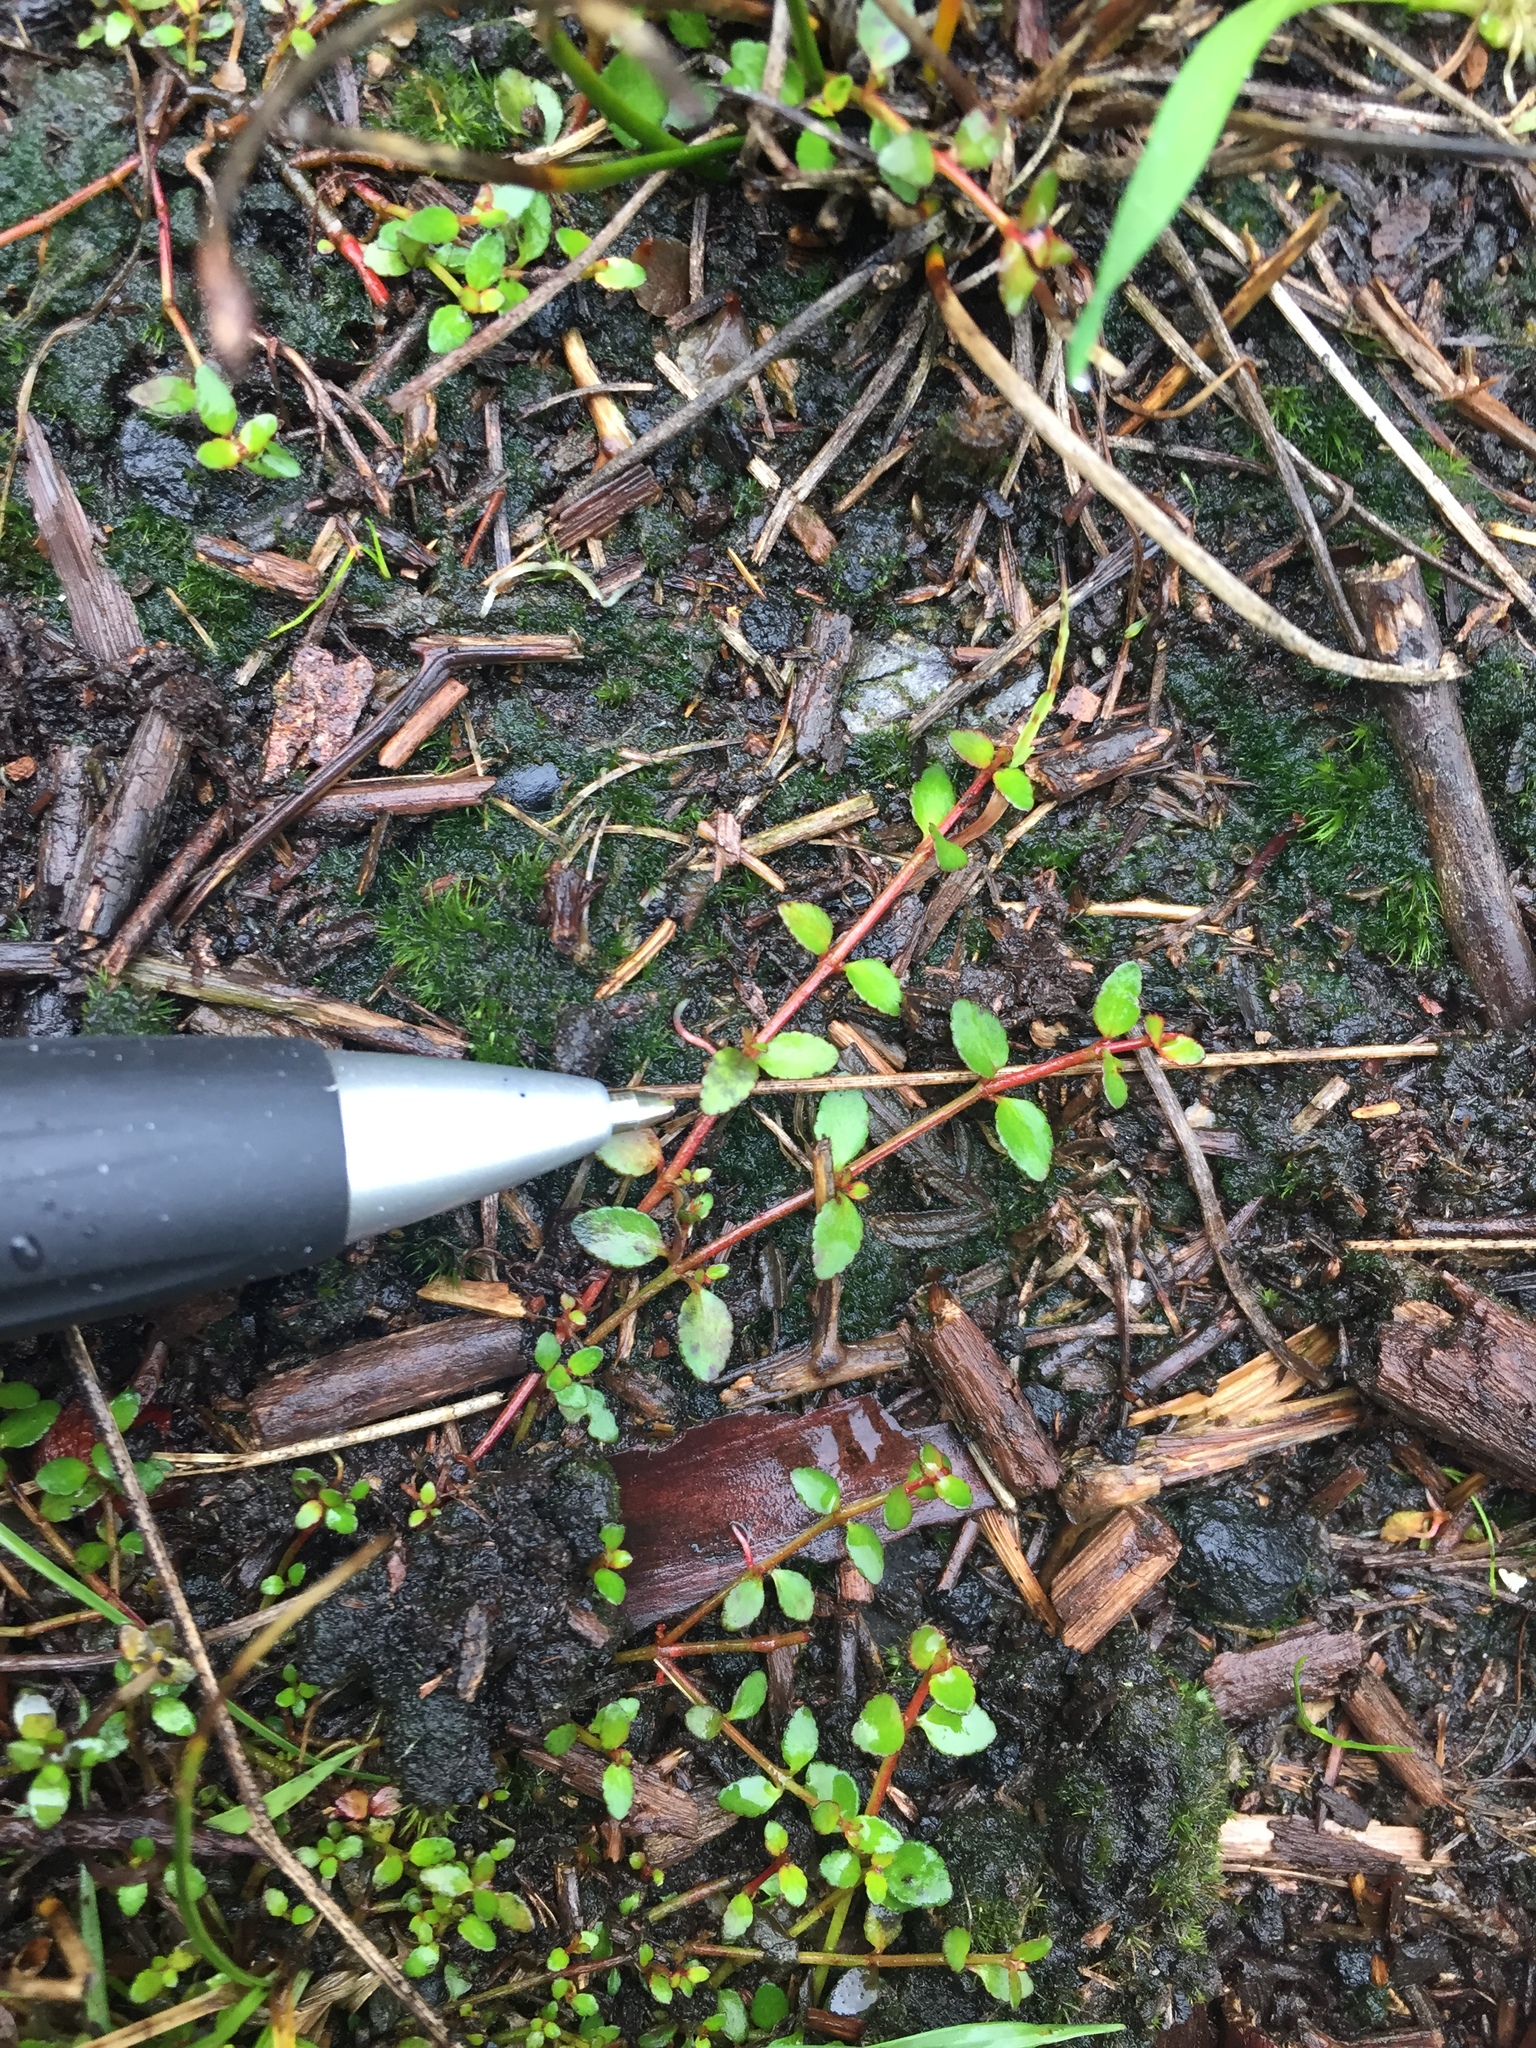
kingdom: Plantae
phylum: Tracheophyta
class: Magnoliopsida
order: Saxifragales
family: Haloragaceae
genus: Gonocarpus
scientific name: Gonocarpus micranthus
